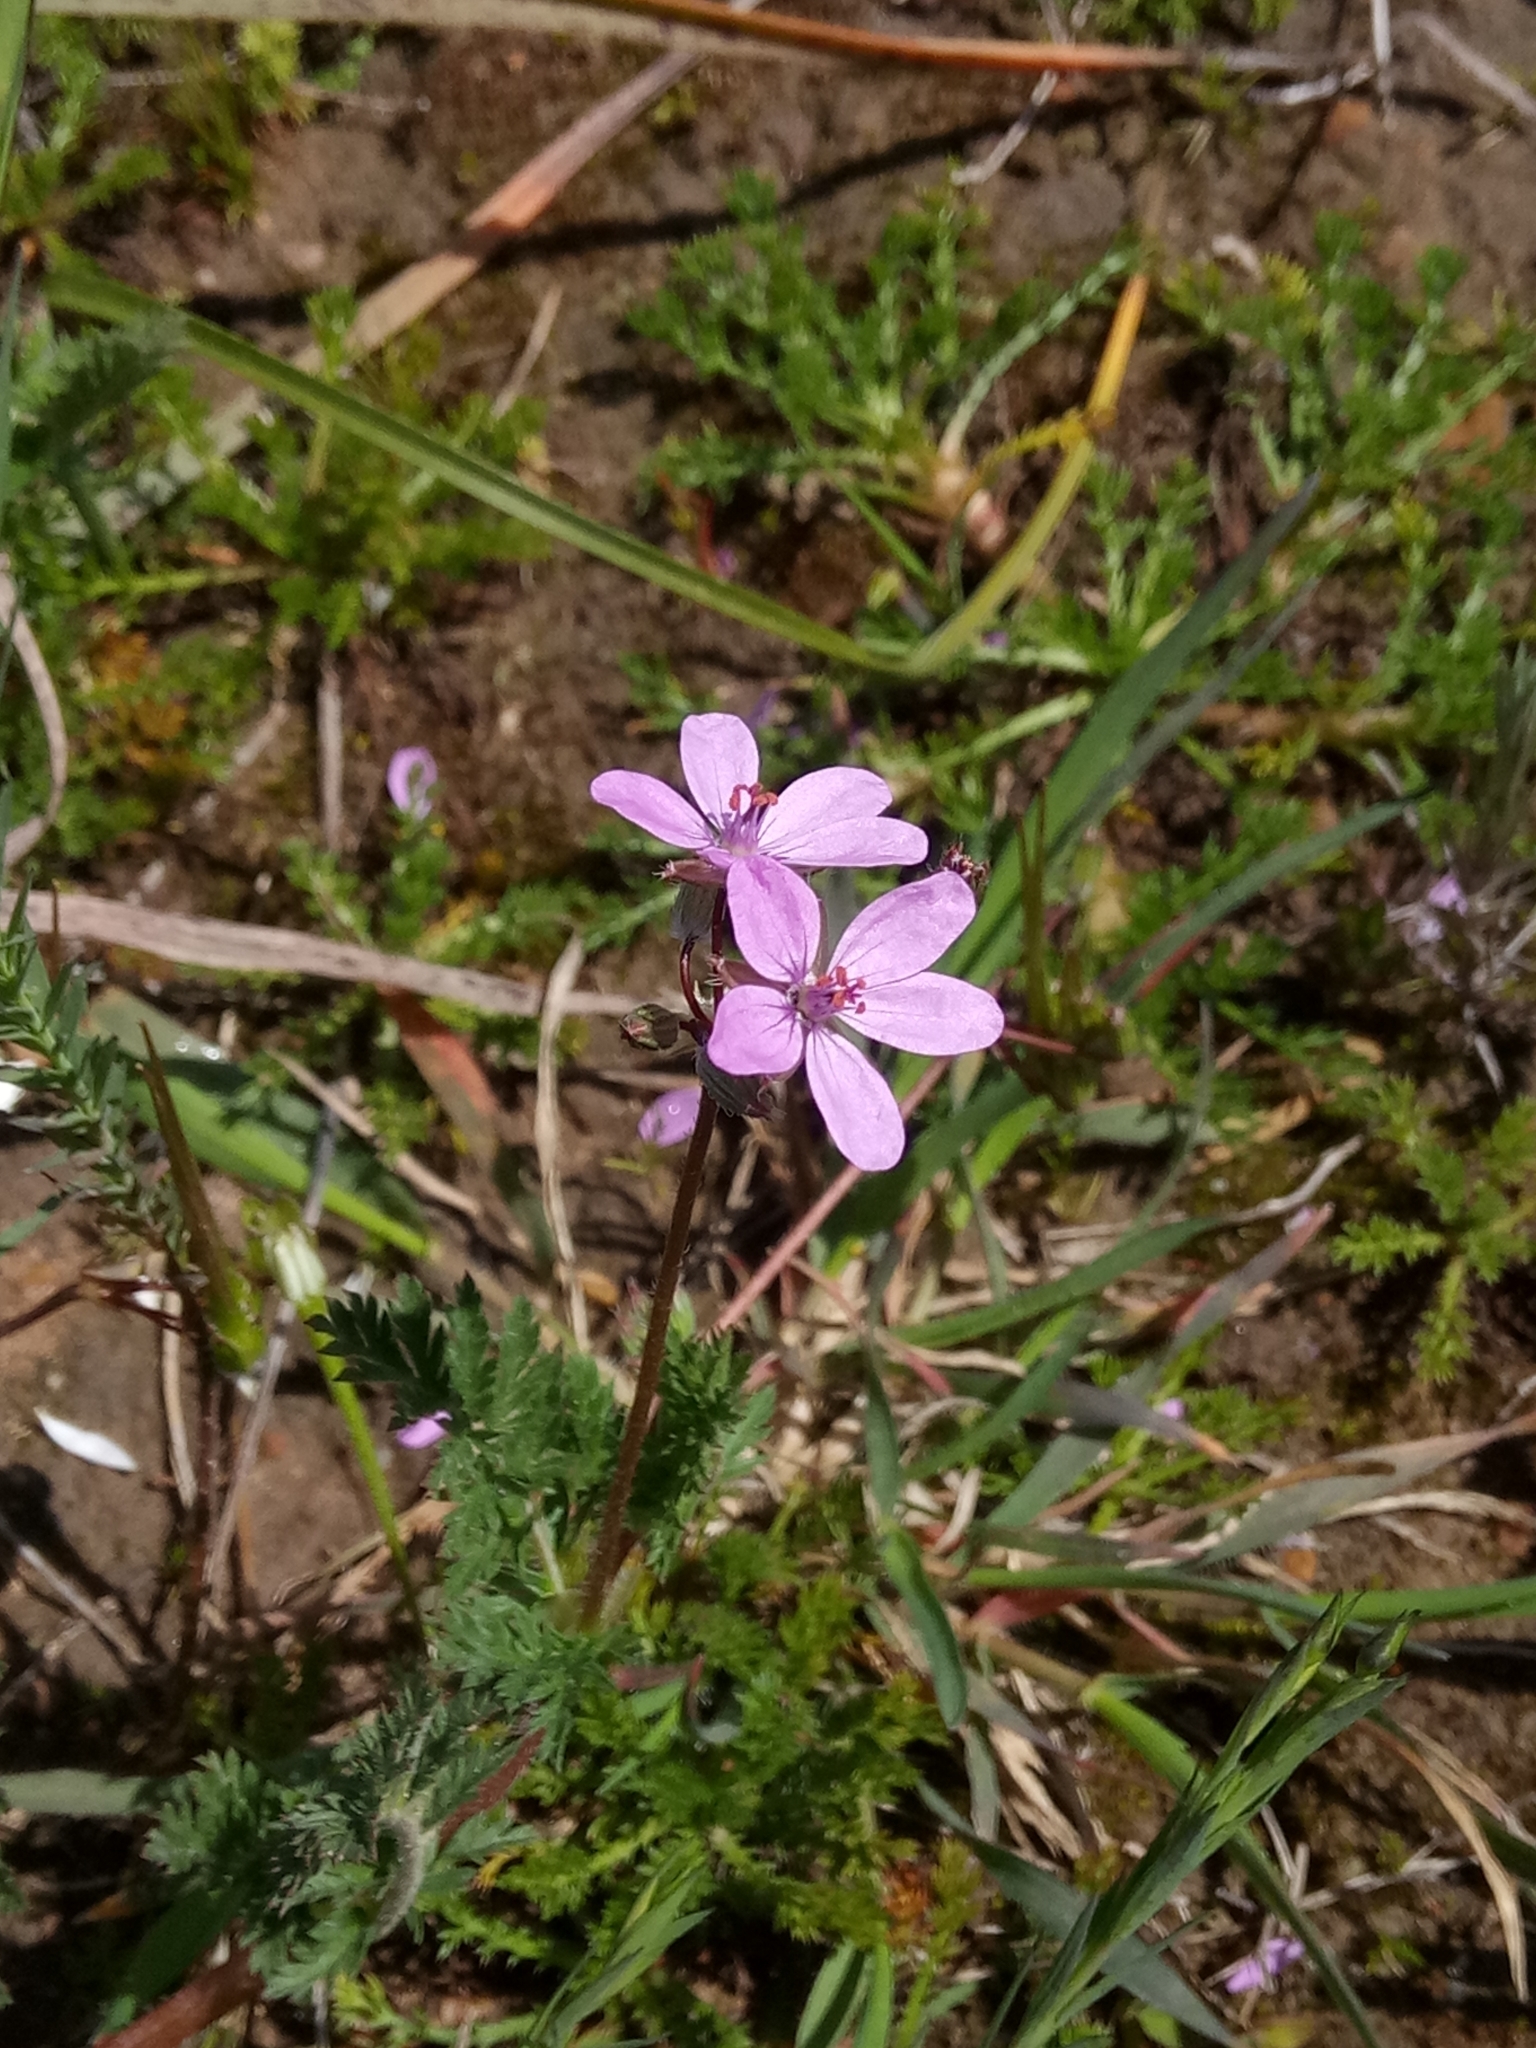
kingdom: Plantae
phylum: Tracheophyta
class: Magnoliopsida
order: Geraniales
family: Geraniaceae
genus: Erodium
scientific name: Erodium cicutarium
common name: Common stork's-bill
